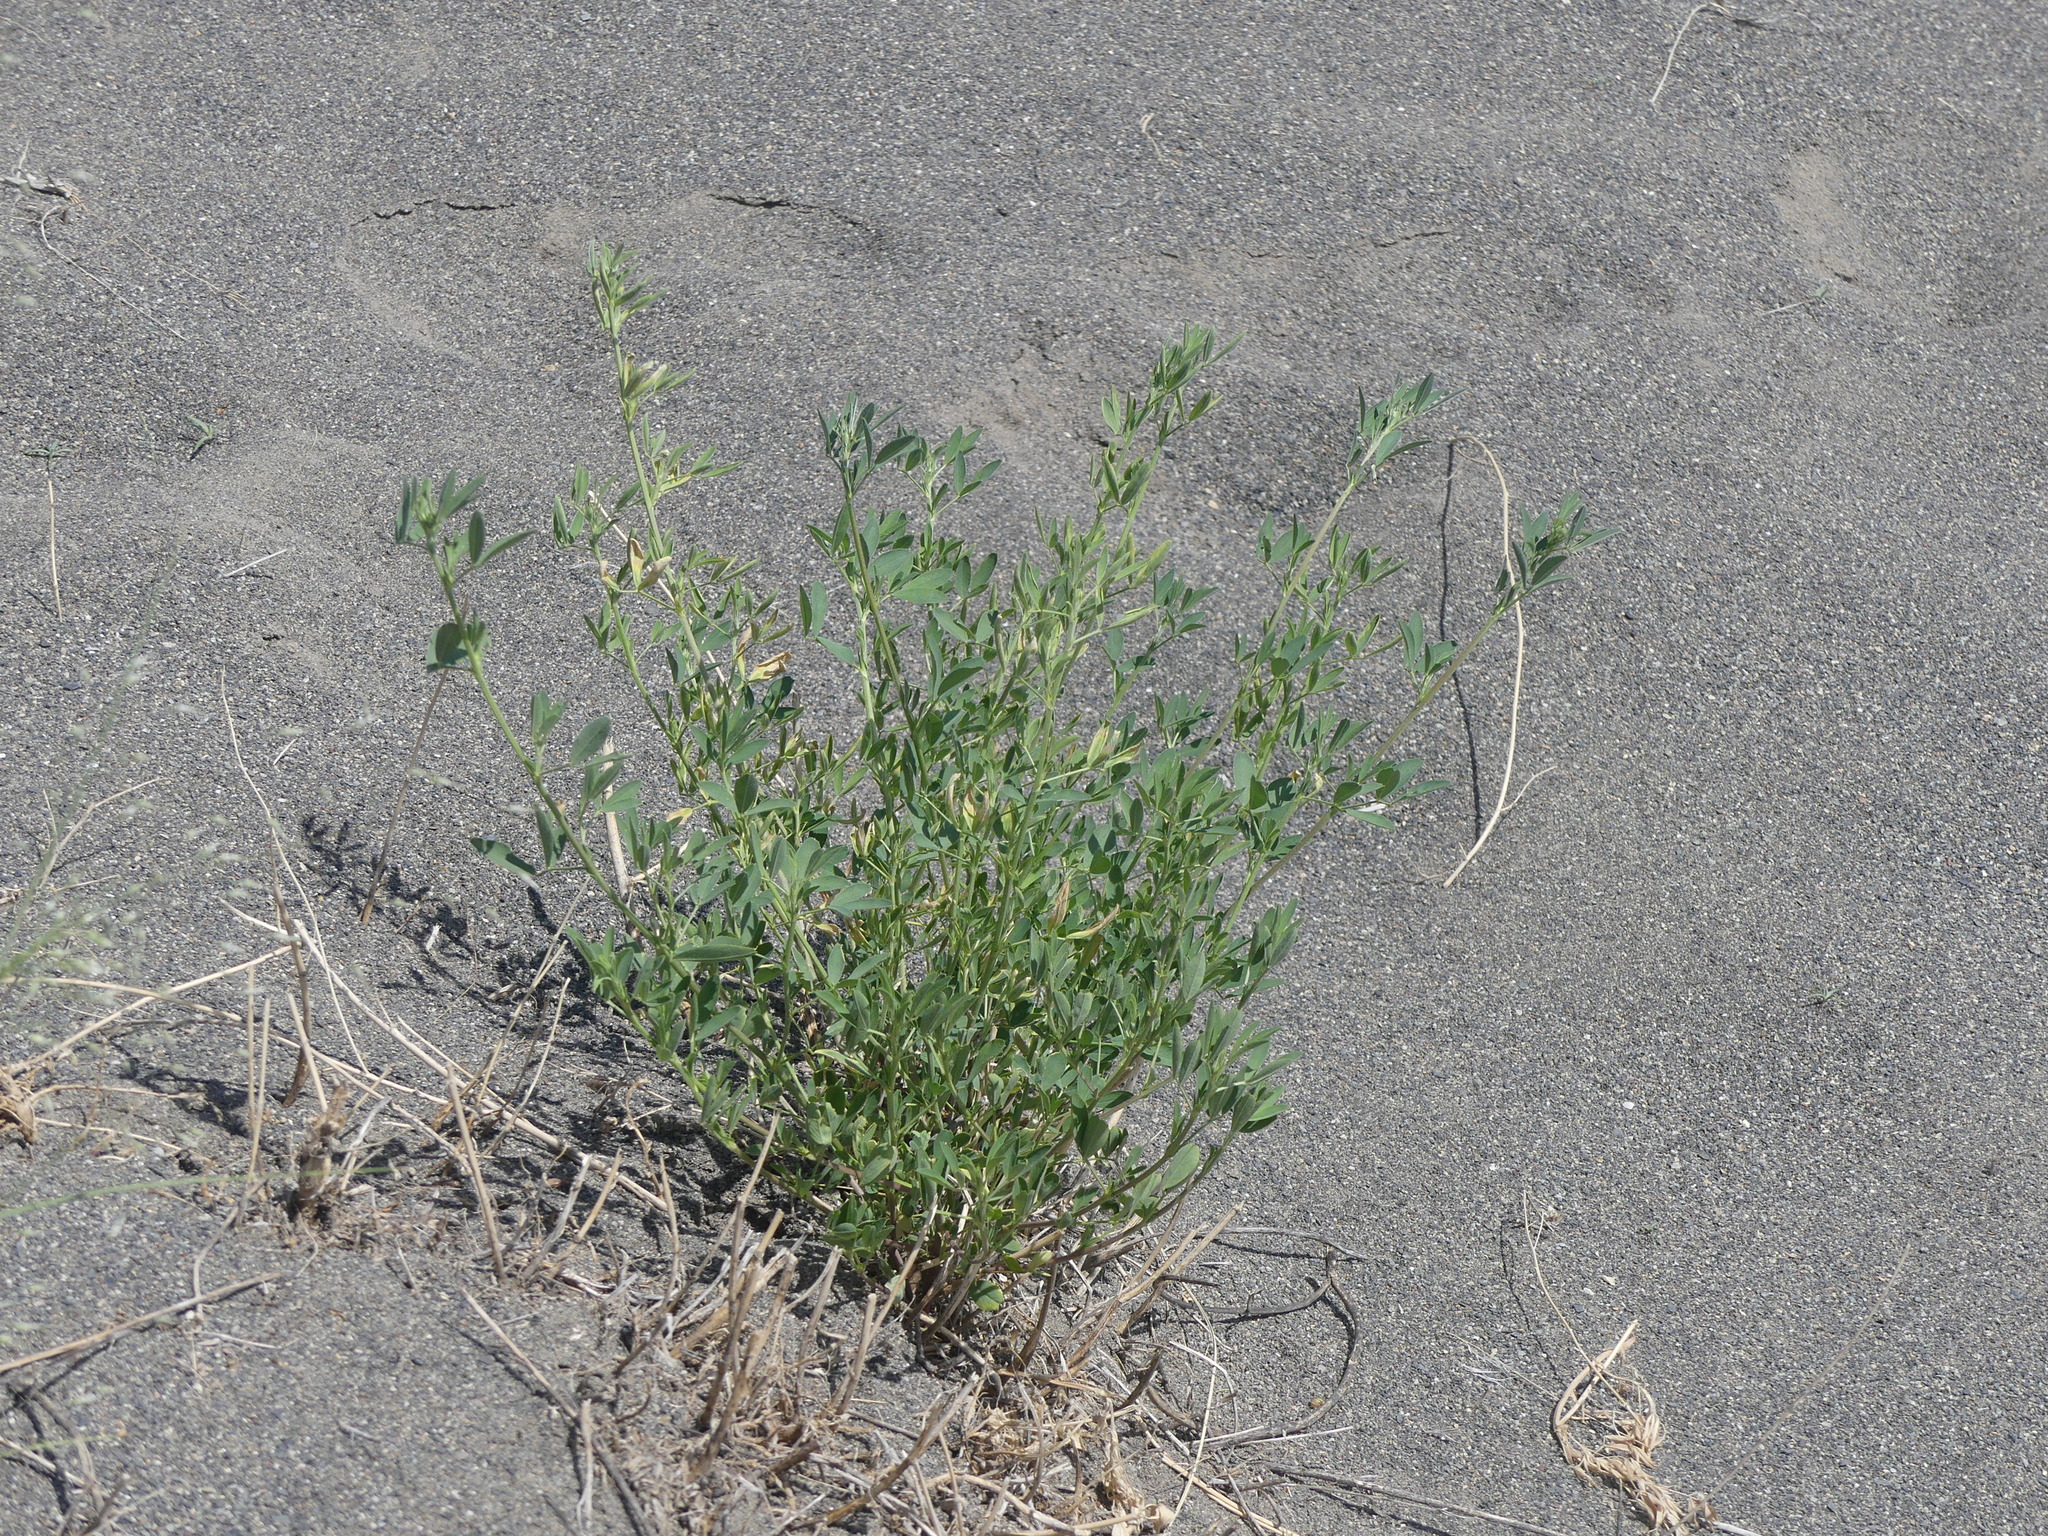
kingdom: Plantae
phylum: Tracheophyta
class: Magnoliopsida
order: Fabales
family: Fabaceae
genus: Medicago
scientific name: Medicago sativa
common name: Alfalfa
